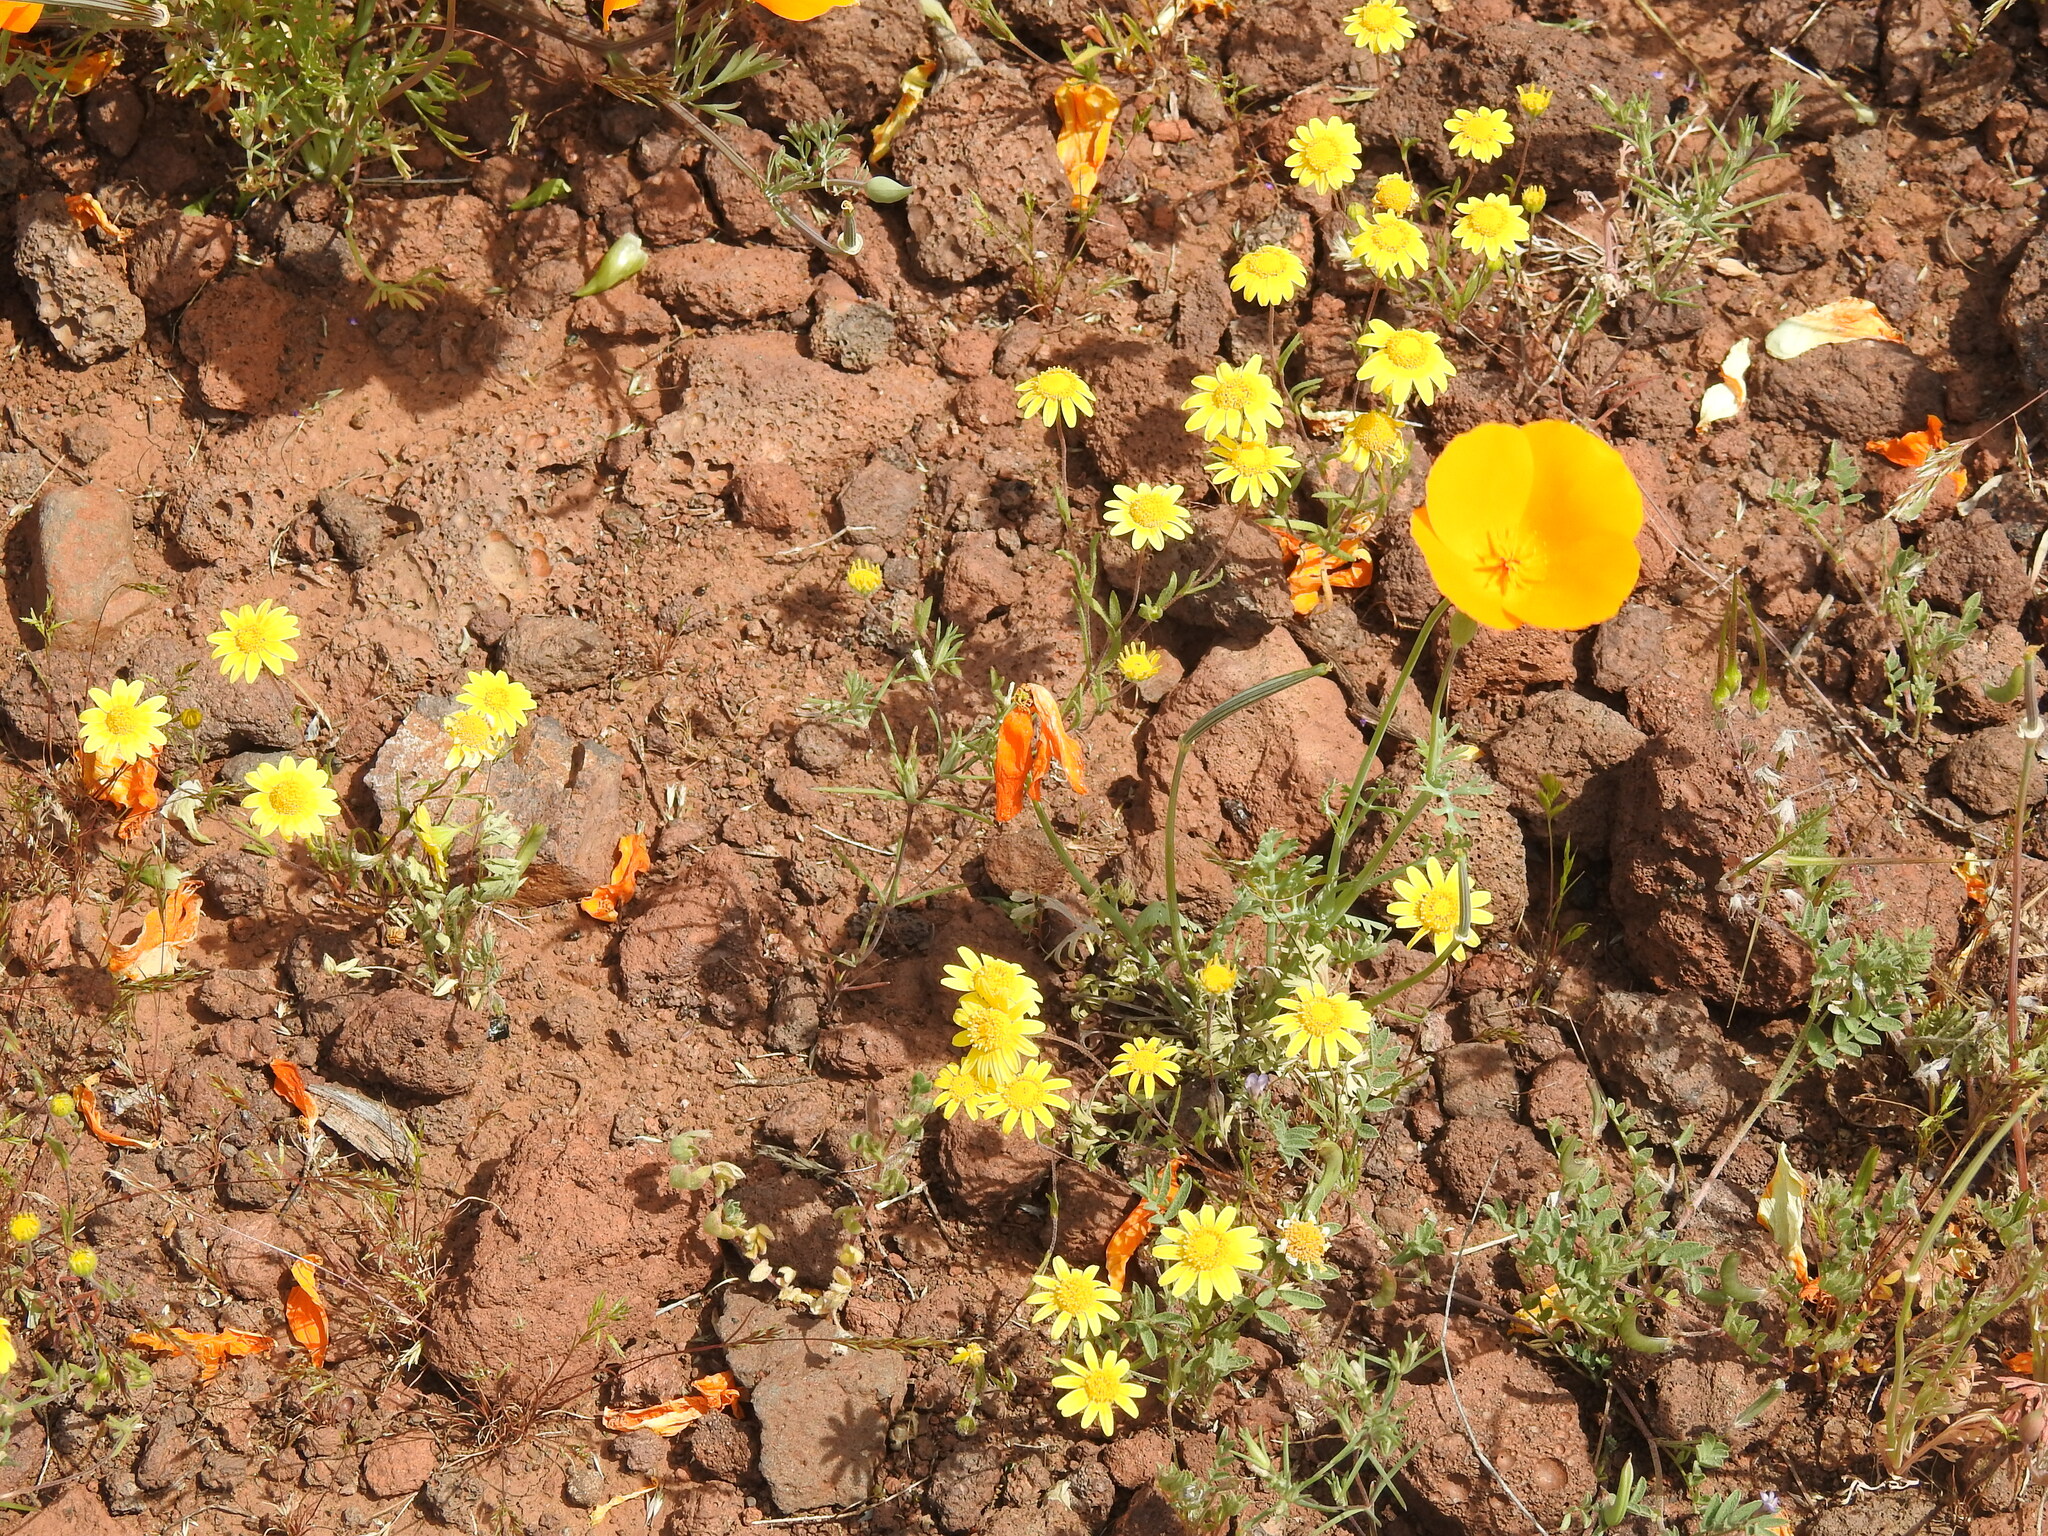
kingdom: Plantae
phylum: Tracheophyta
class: Magnoliopsida
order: Asterales
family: Asteraceae
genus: Lasthenia
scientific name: Lasthenia gracilis
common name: Common goldfields
